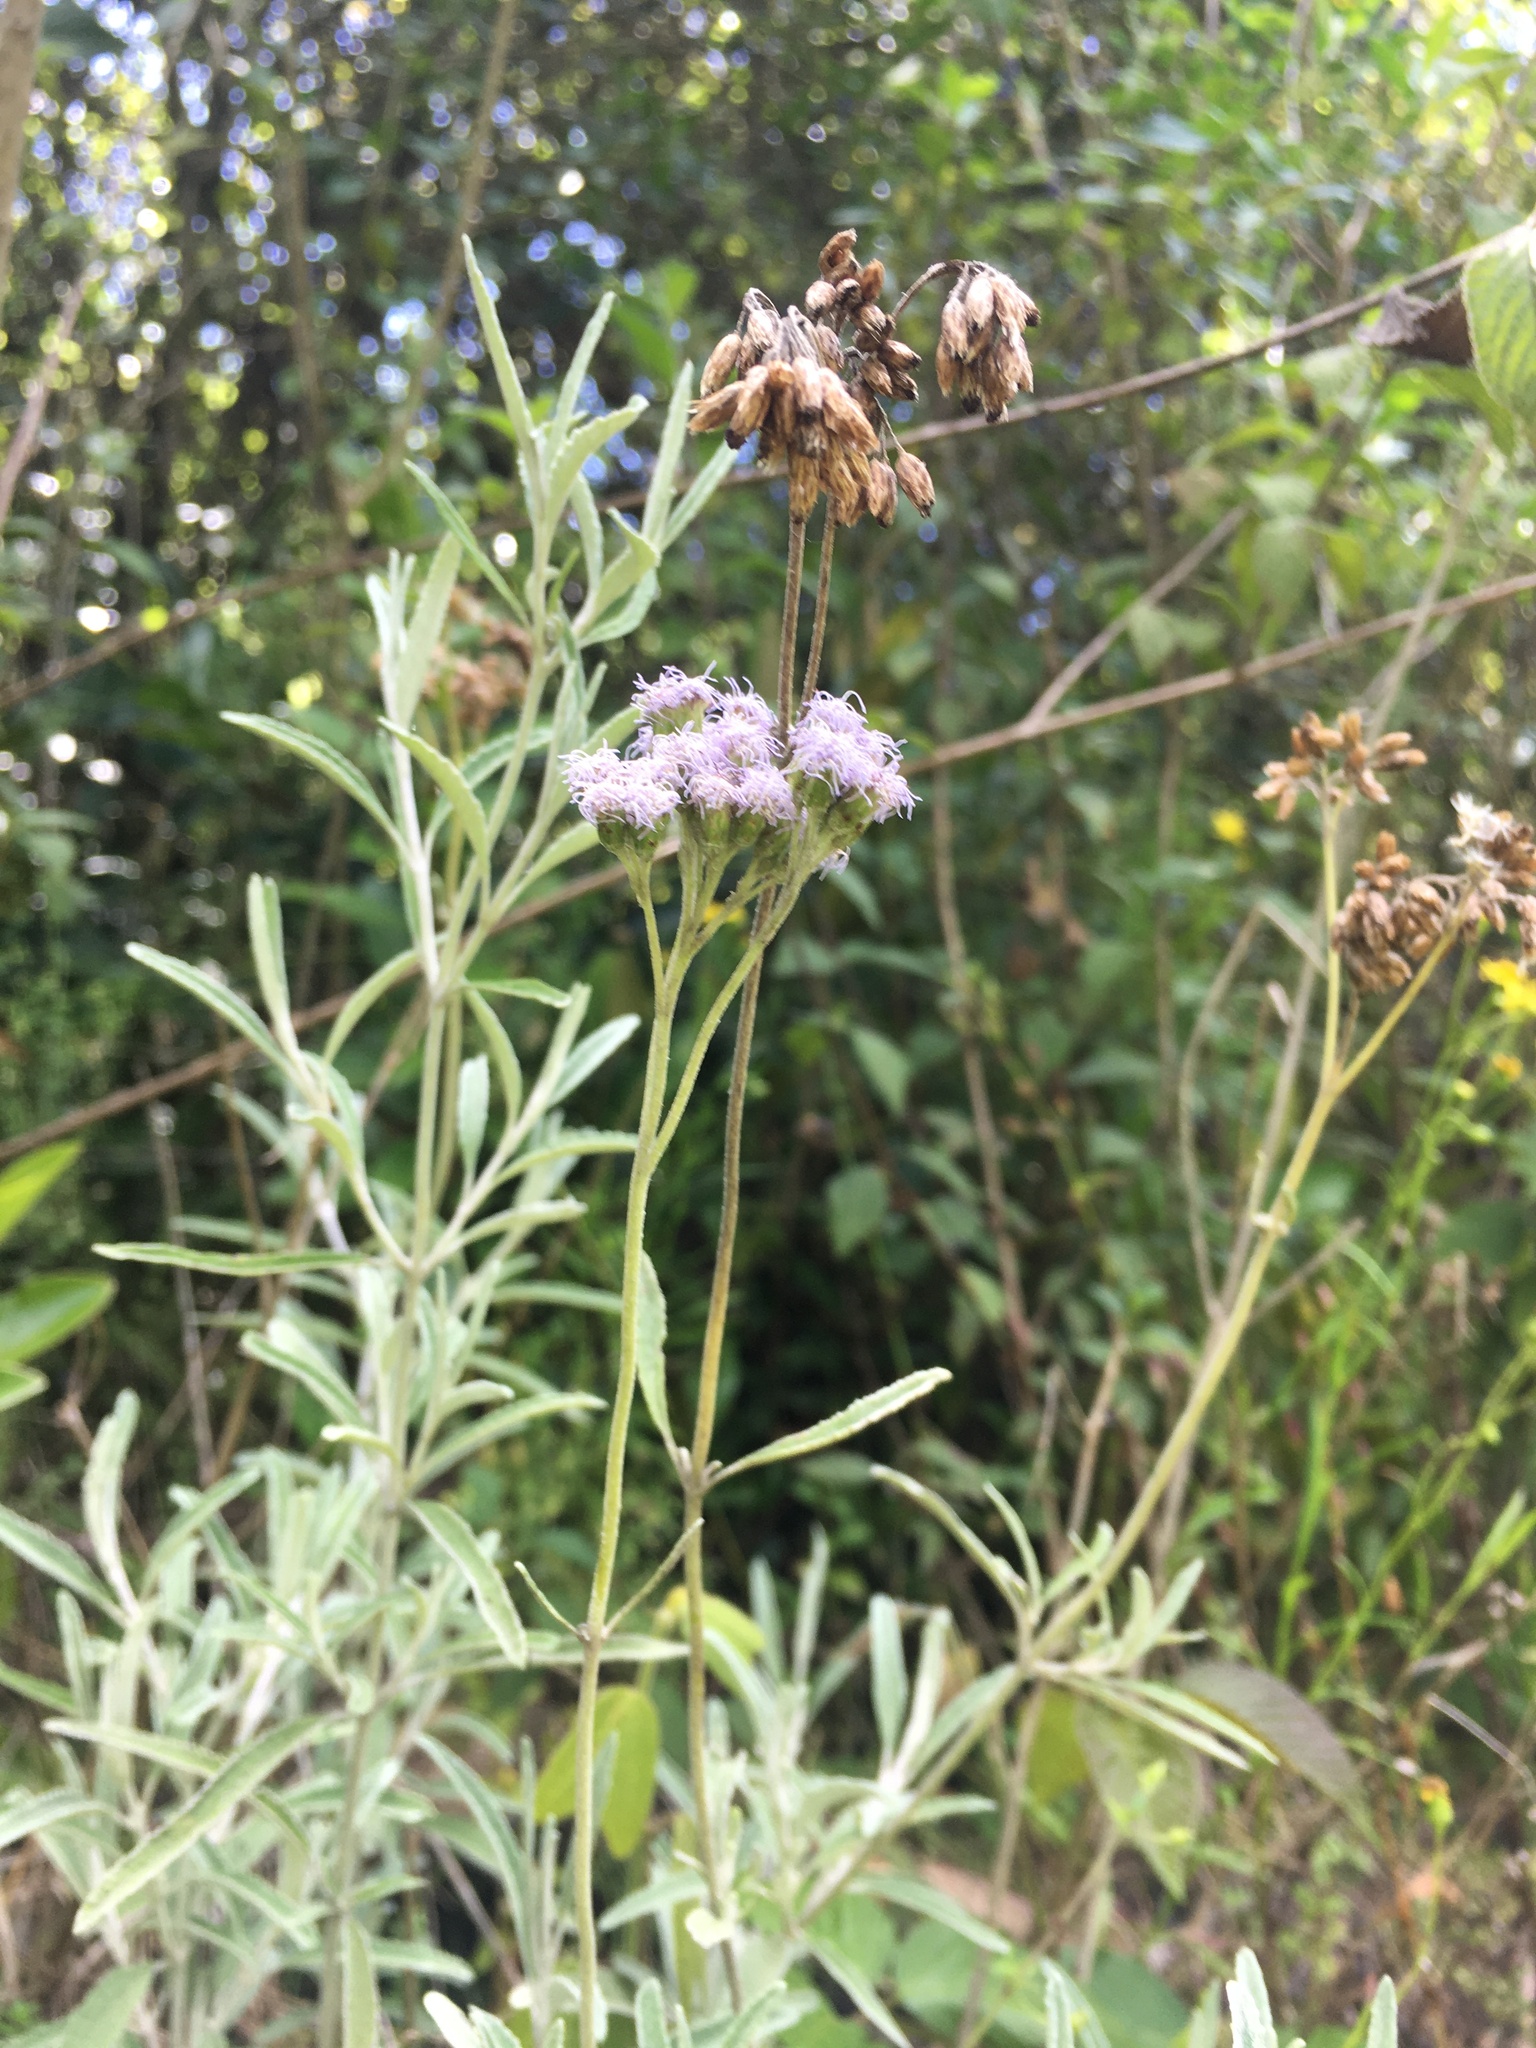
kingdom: Plantae
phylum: Tracheophyta
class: Magnoliopsida
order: Asterales
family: Asteraceae
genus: Lourteigia
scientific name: Lourteigia stoechadifolia
